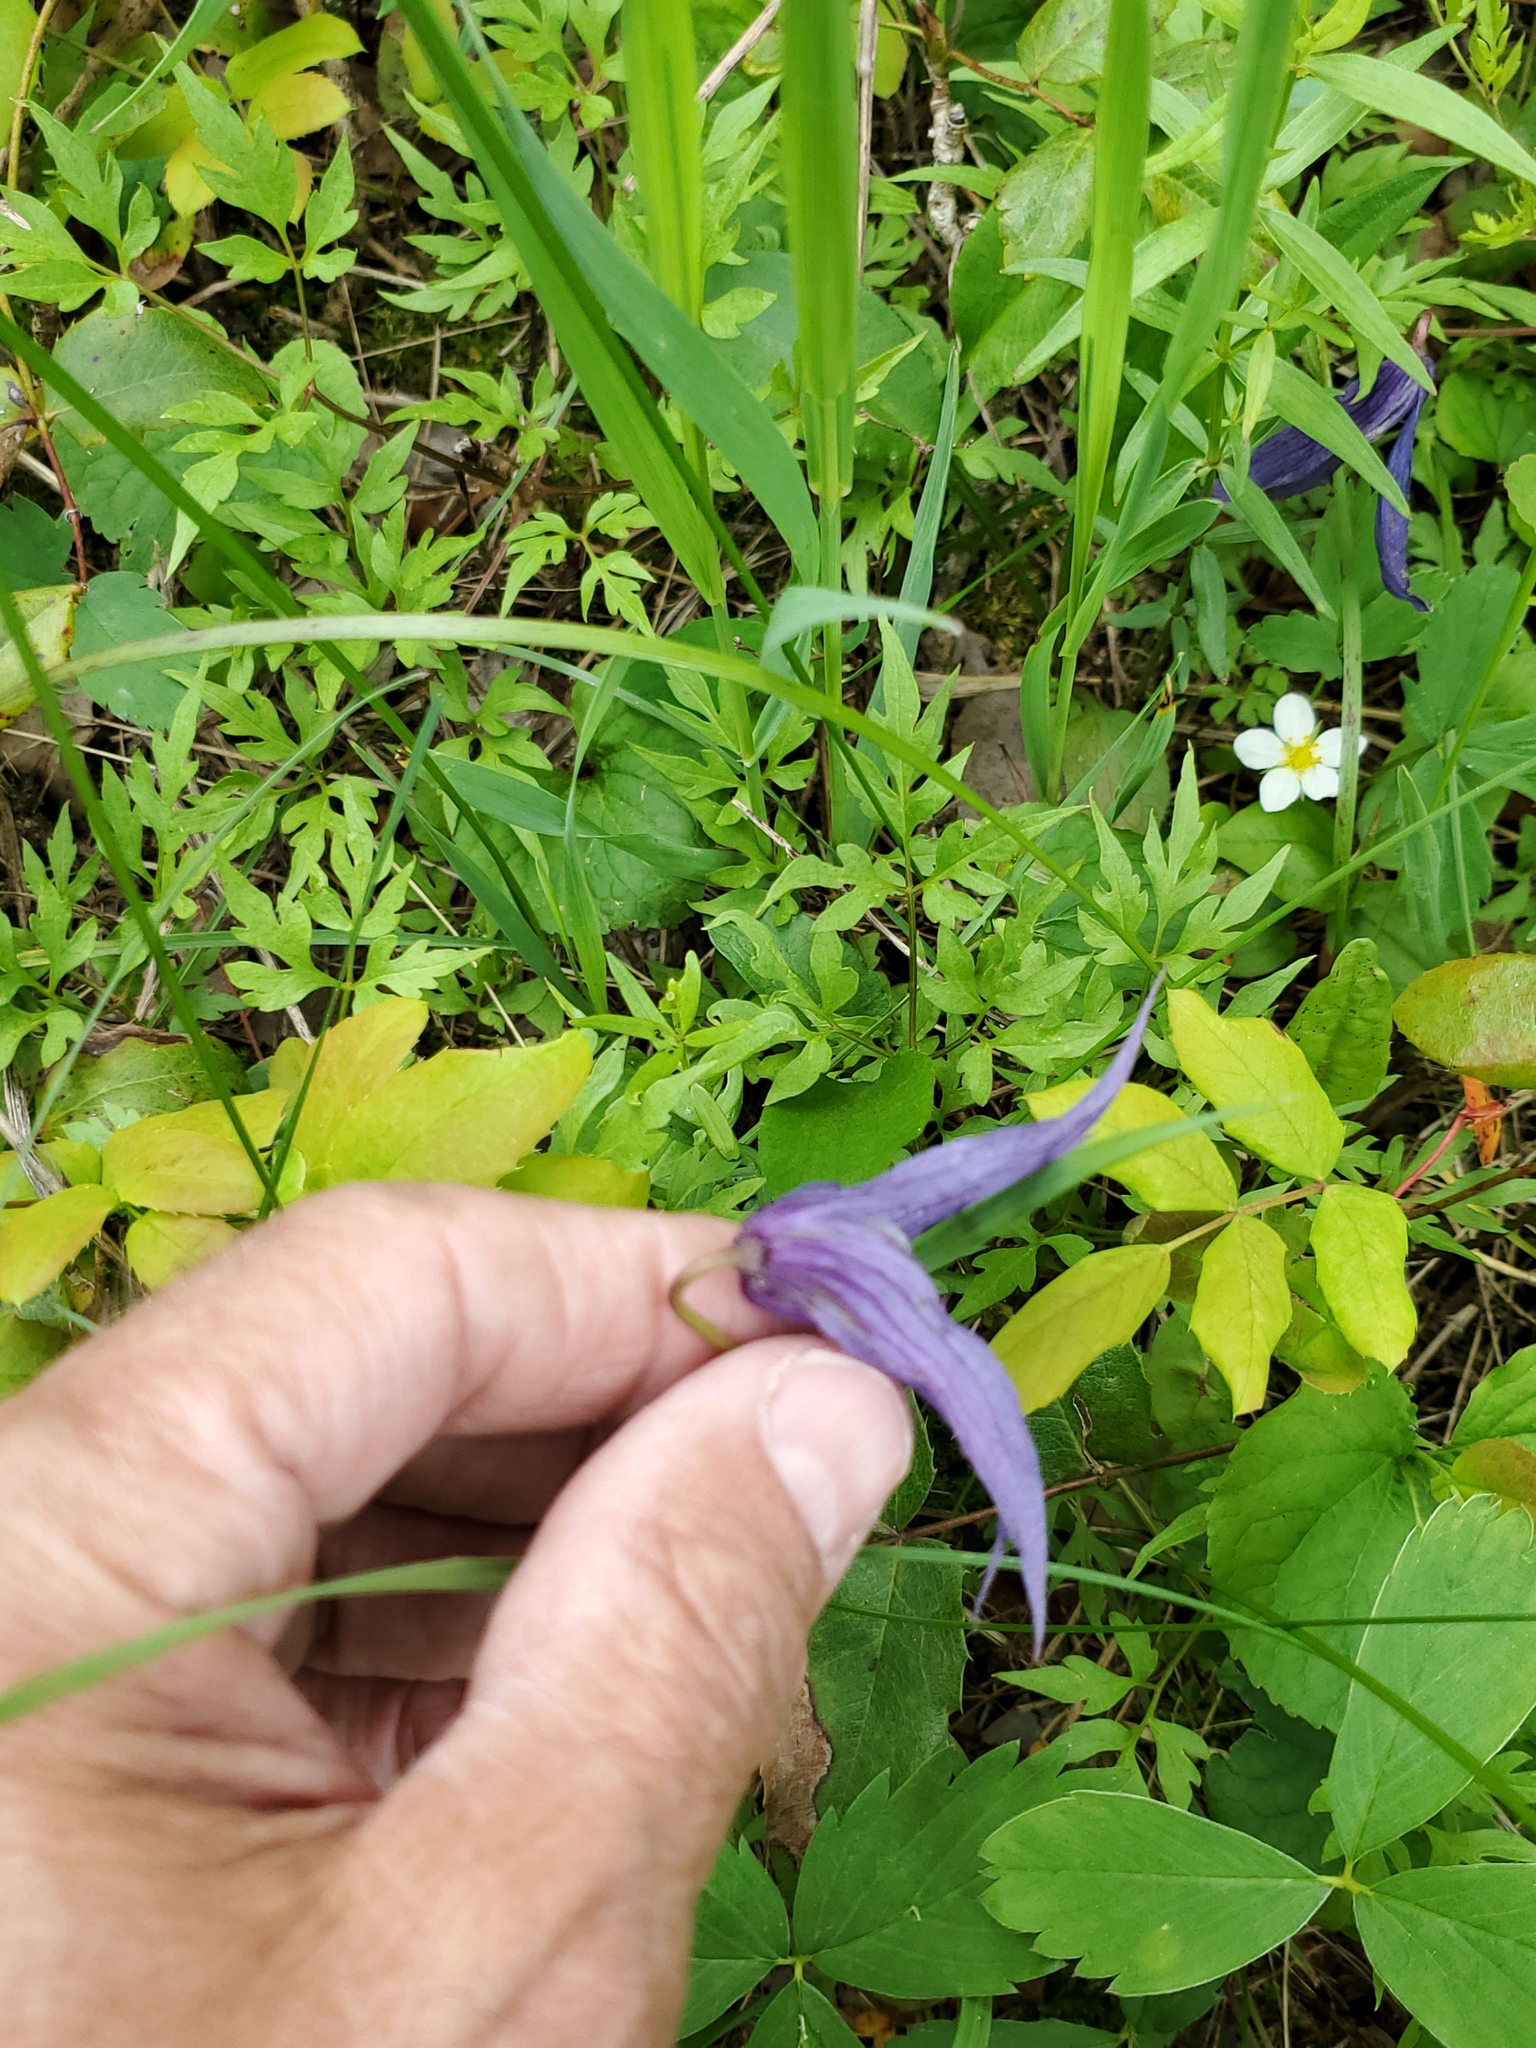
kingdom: Plantae
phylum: Tracheophyta
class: Magnoliopsida
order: Ranunculales
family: Ranunculaceae
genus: Clematis
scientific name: Clematis columbiana
